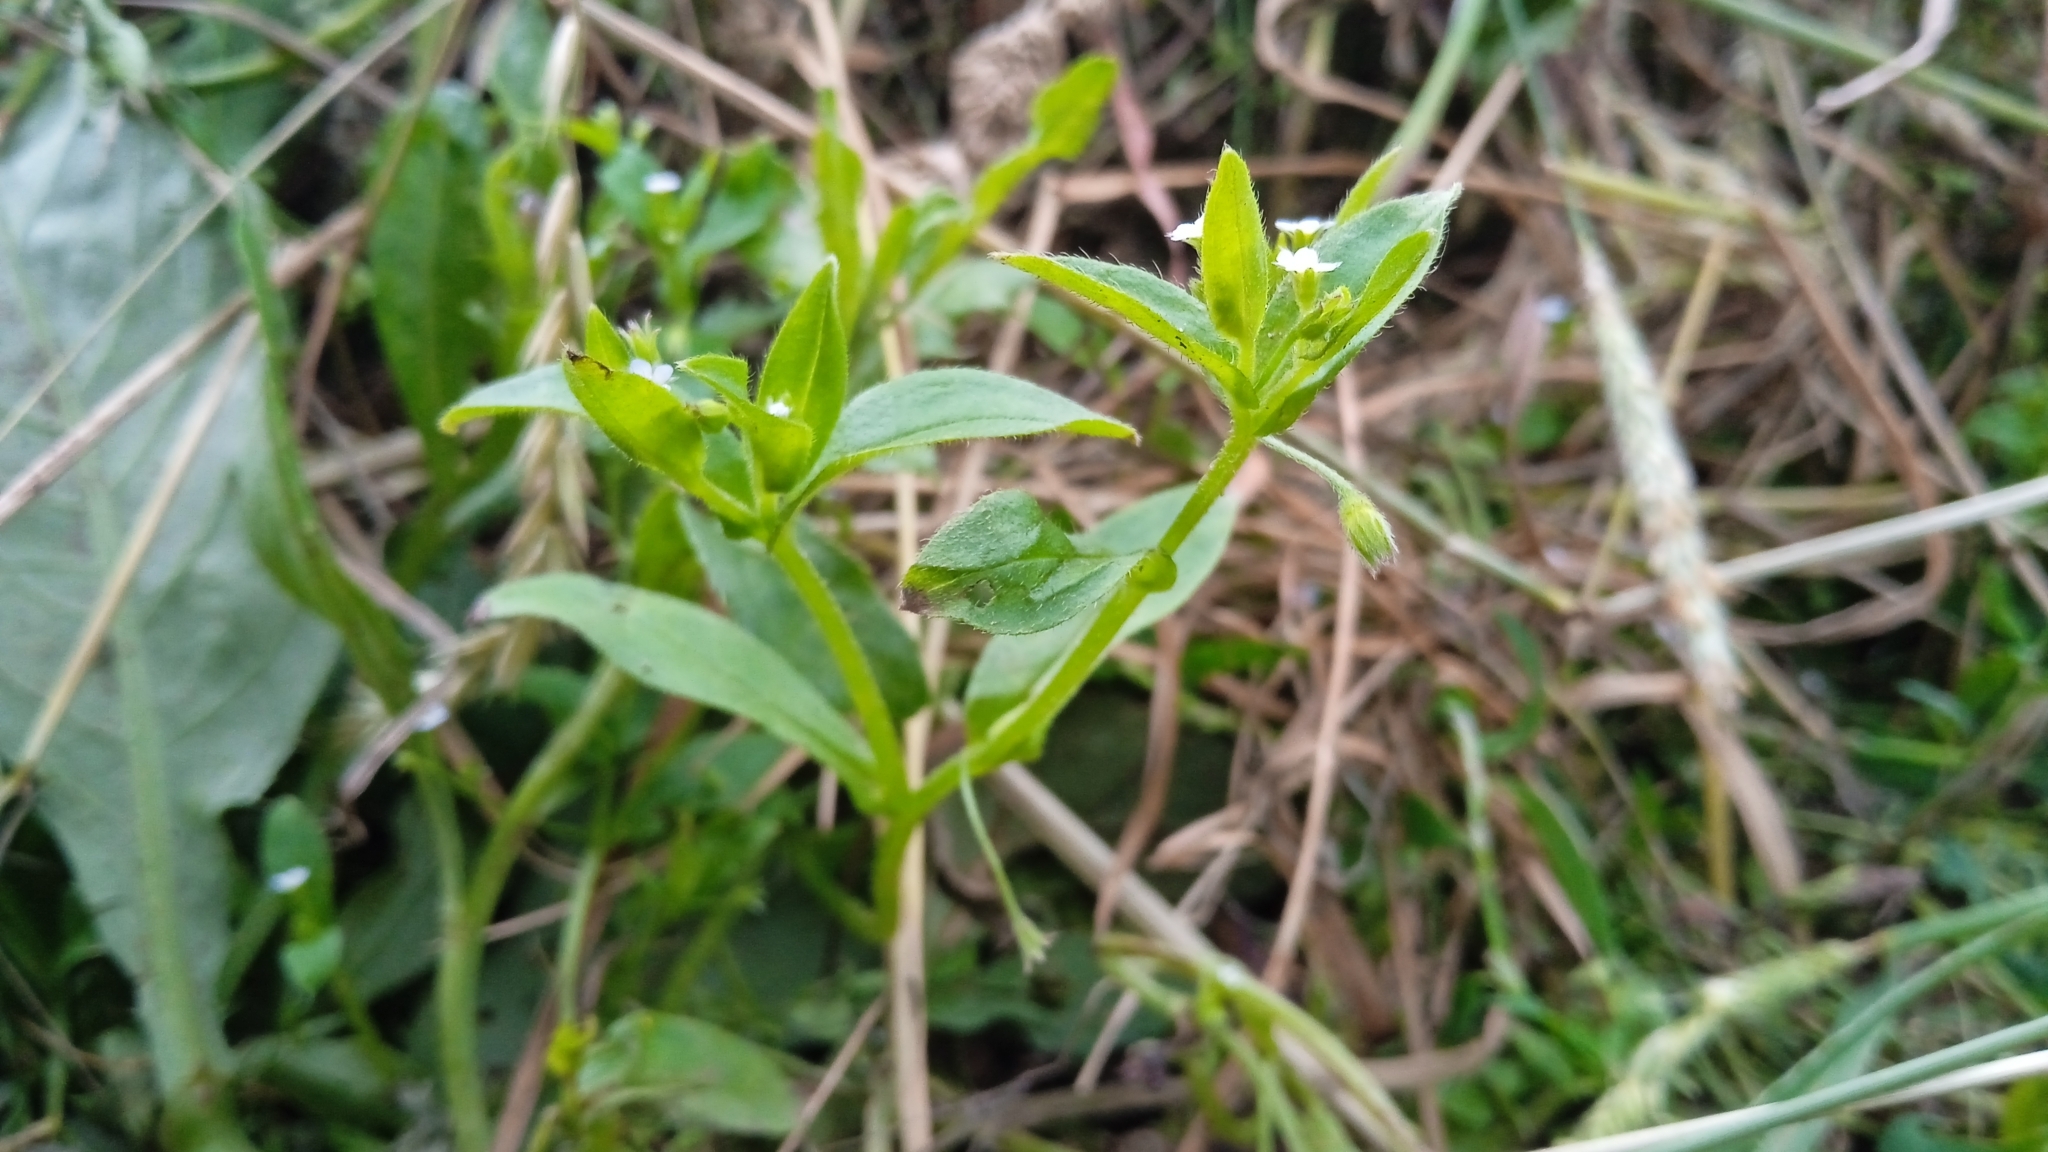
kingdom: Plantae
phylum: Tracheophyta
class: Magnoliopsida
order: Boraginales
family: Boraginaceae
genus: Myosotis
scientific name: Myosotis sparsiflora
